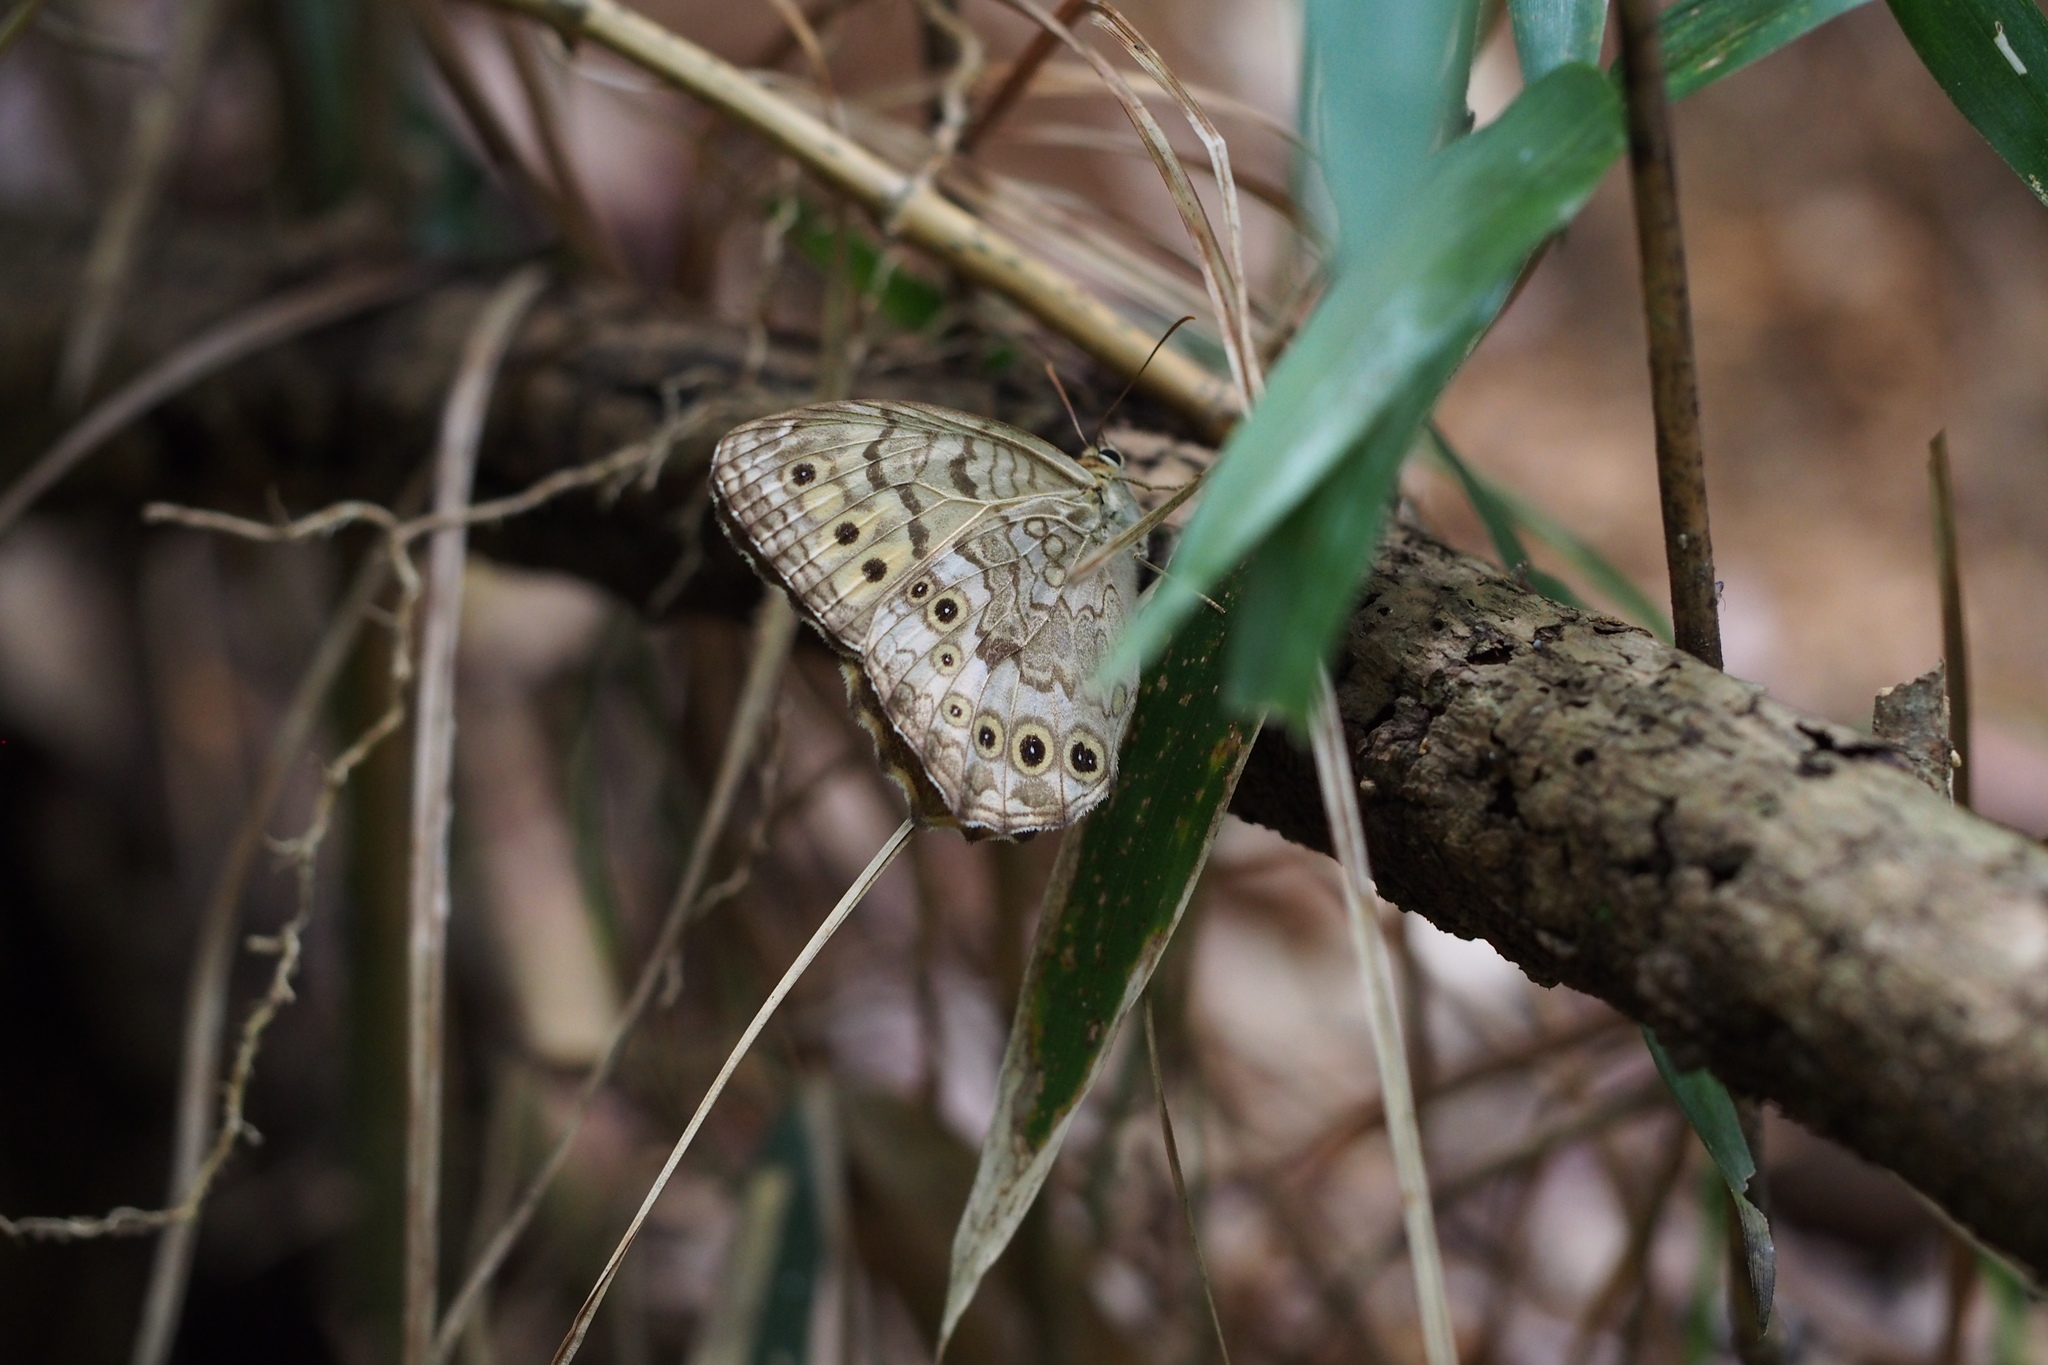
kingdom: Animalia
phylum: Arthropoda
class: Insecta
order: Lepidoptera
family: Nymphalidae
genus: Neope
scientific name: Neope goschkevitschii
